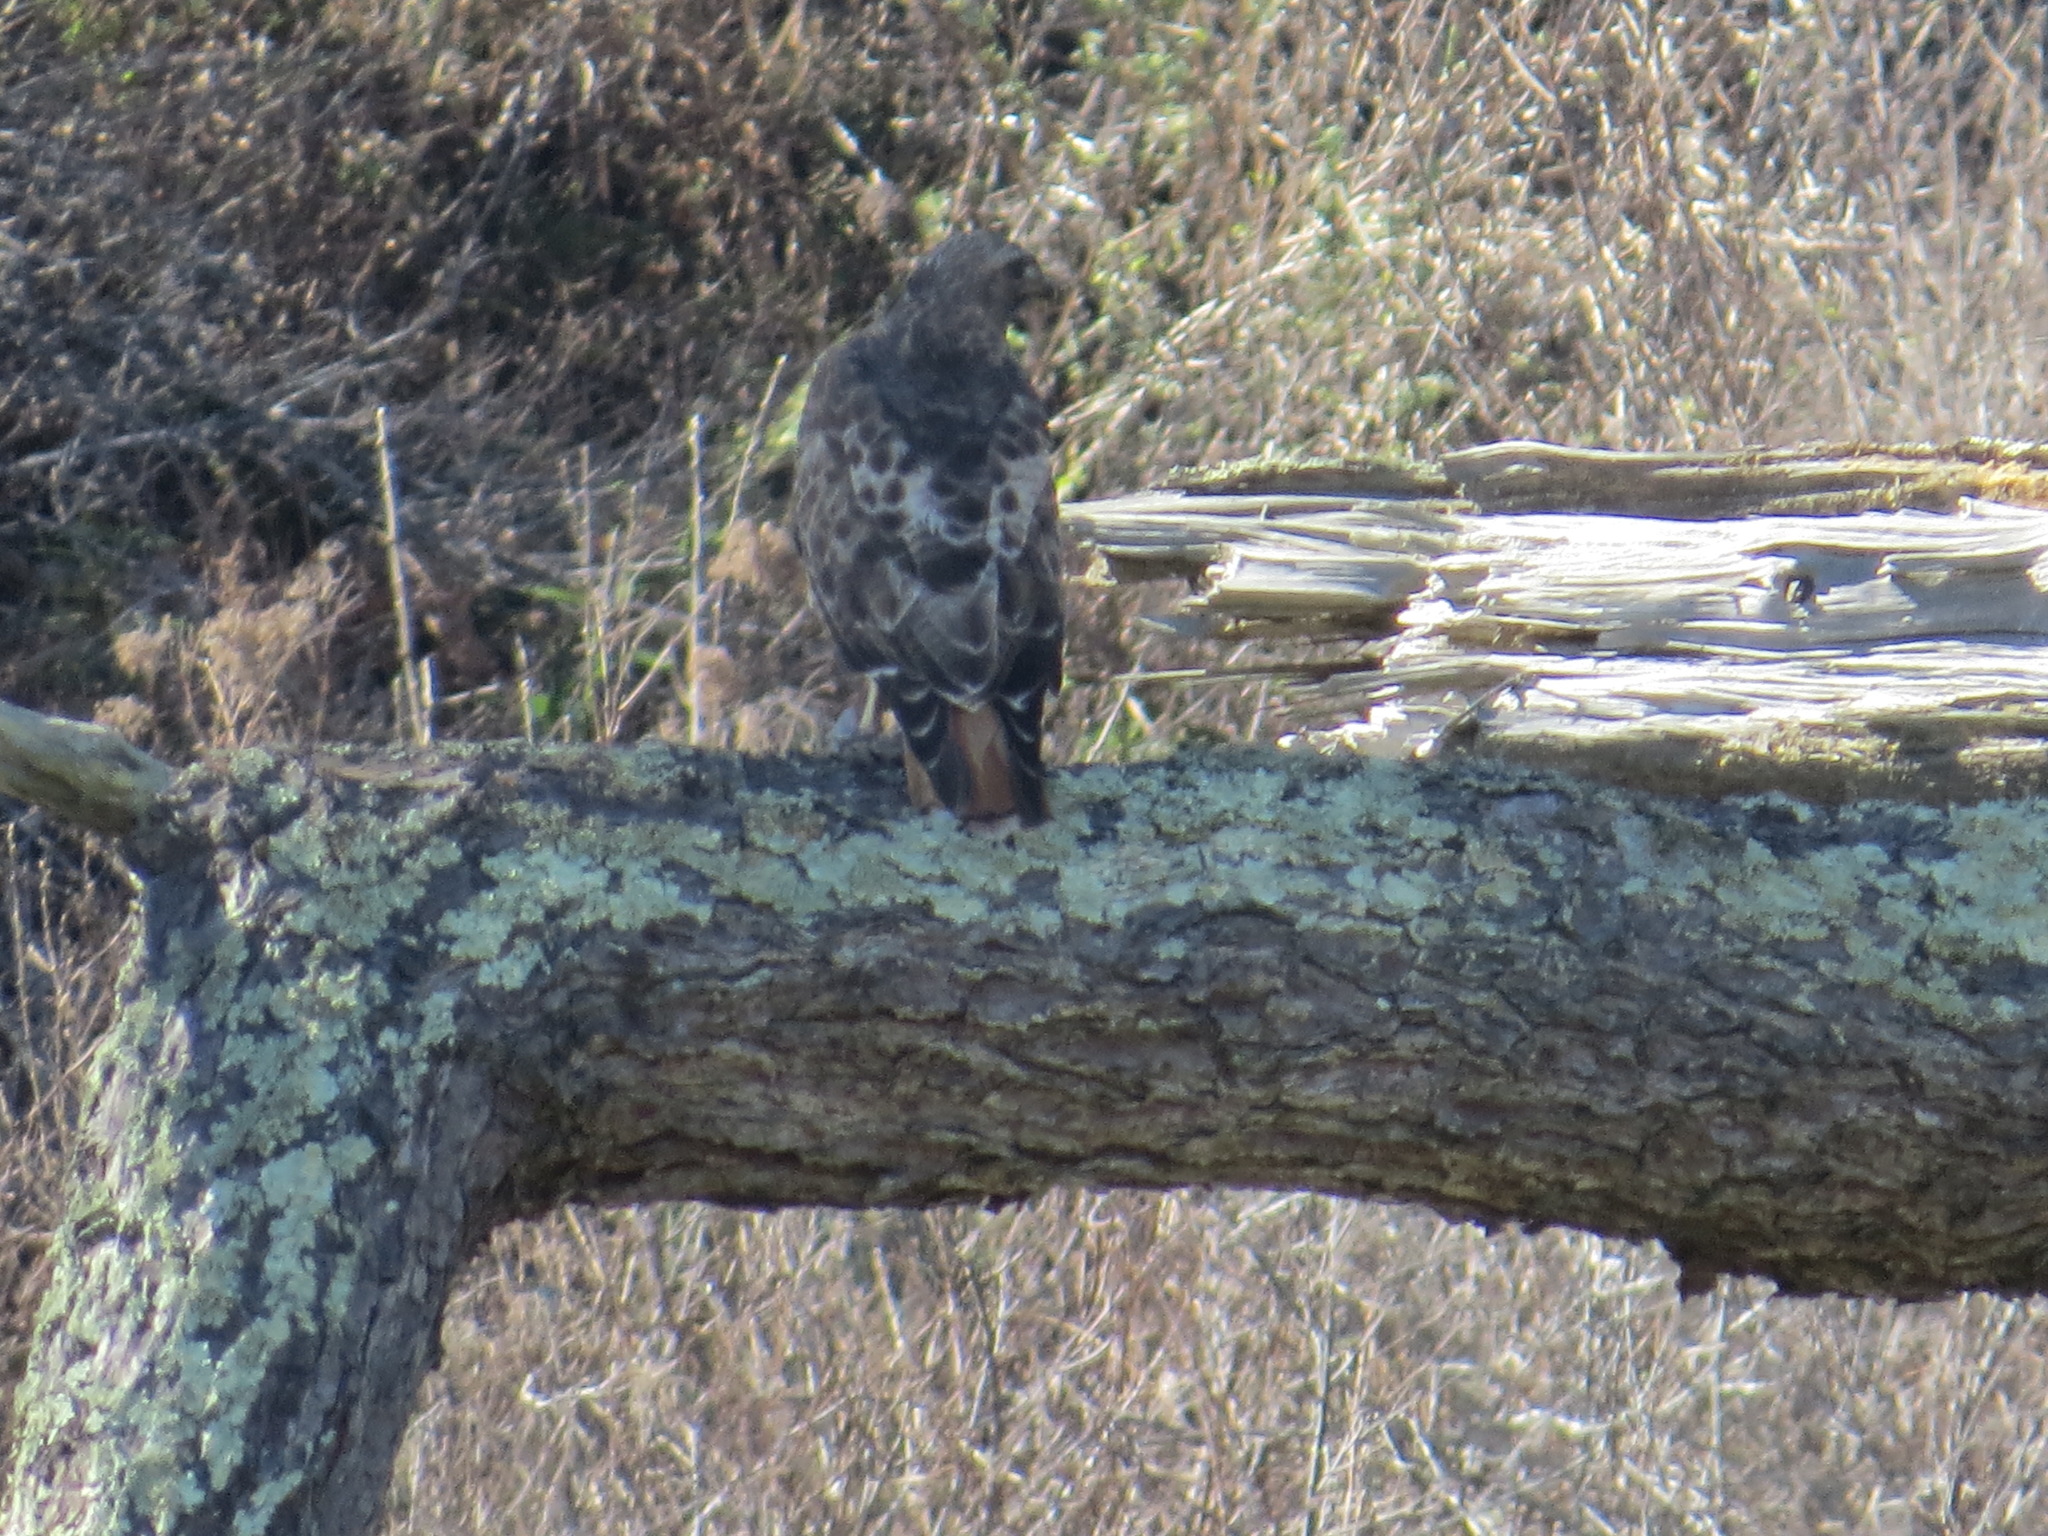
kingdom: Animalia
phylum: Chordata
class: Aves
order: Accipitriformes
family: Accipitridae
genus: Buteo
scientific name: Buteo jamaicensis
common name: Red-tailed hawk
